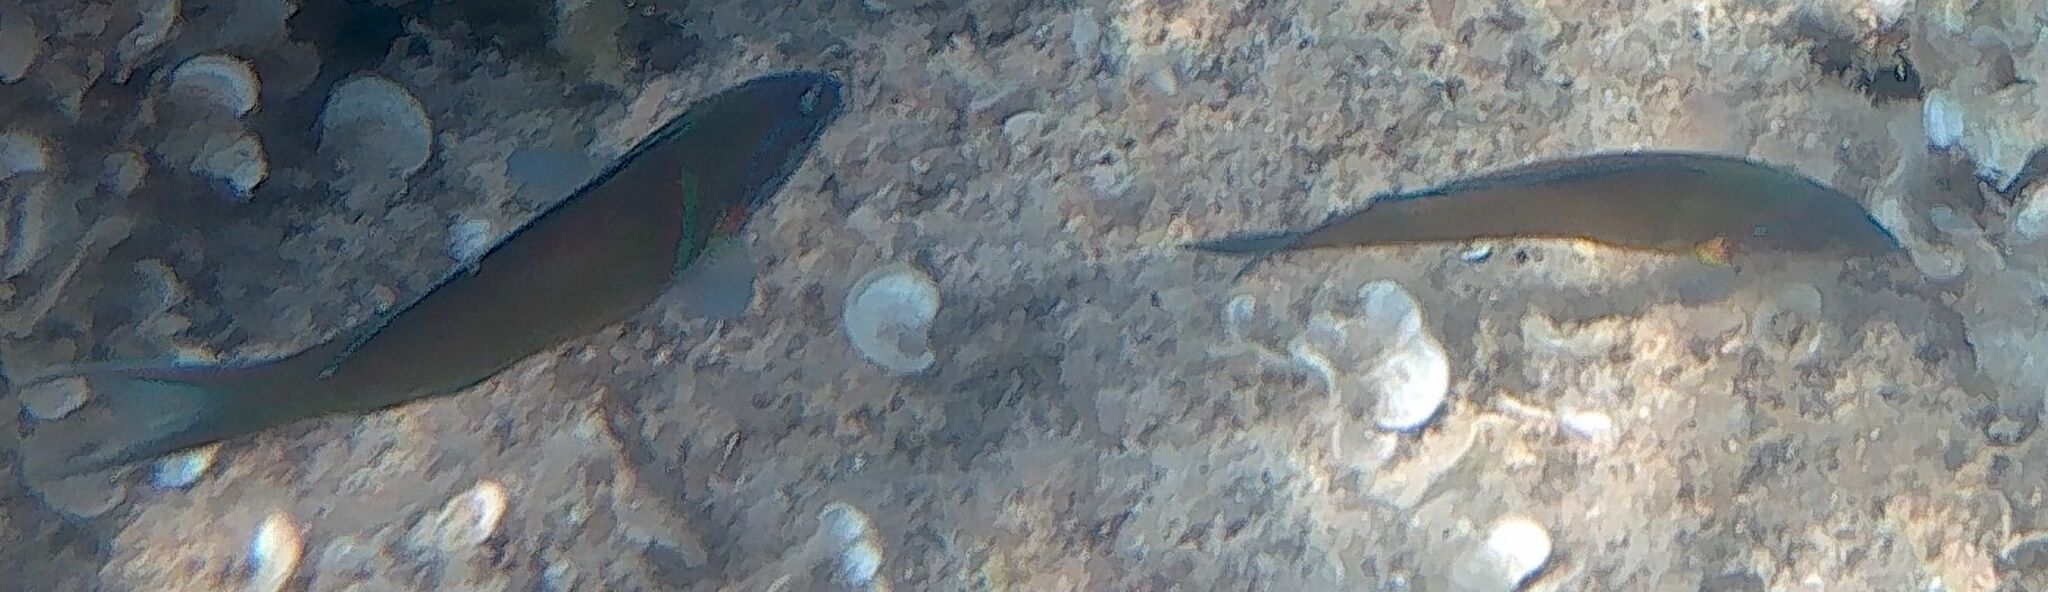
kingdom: Animalia
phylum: Chordata
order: Perciformes
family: Labridae
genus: Thalassoma
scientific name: Thalassoma pavo
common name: Ornate wrasse
